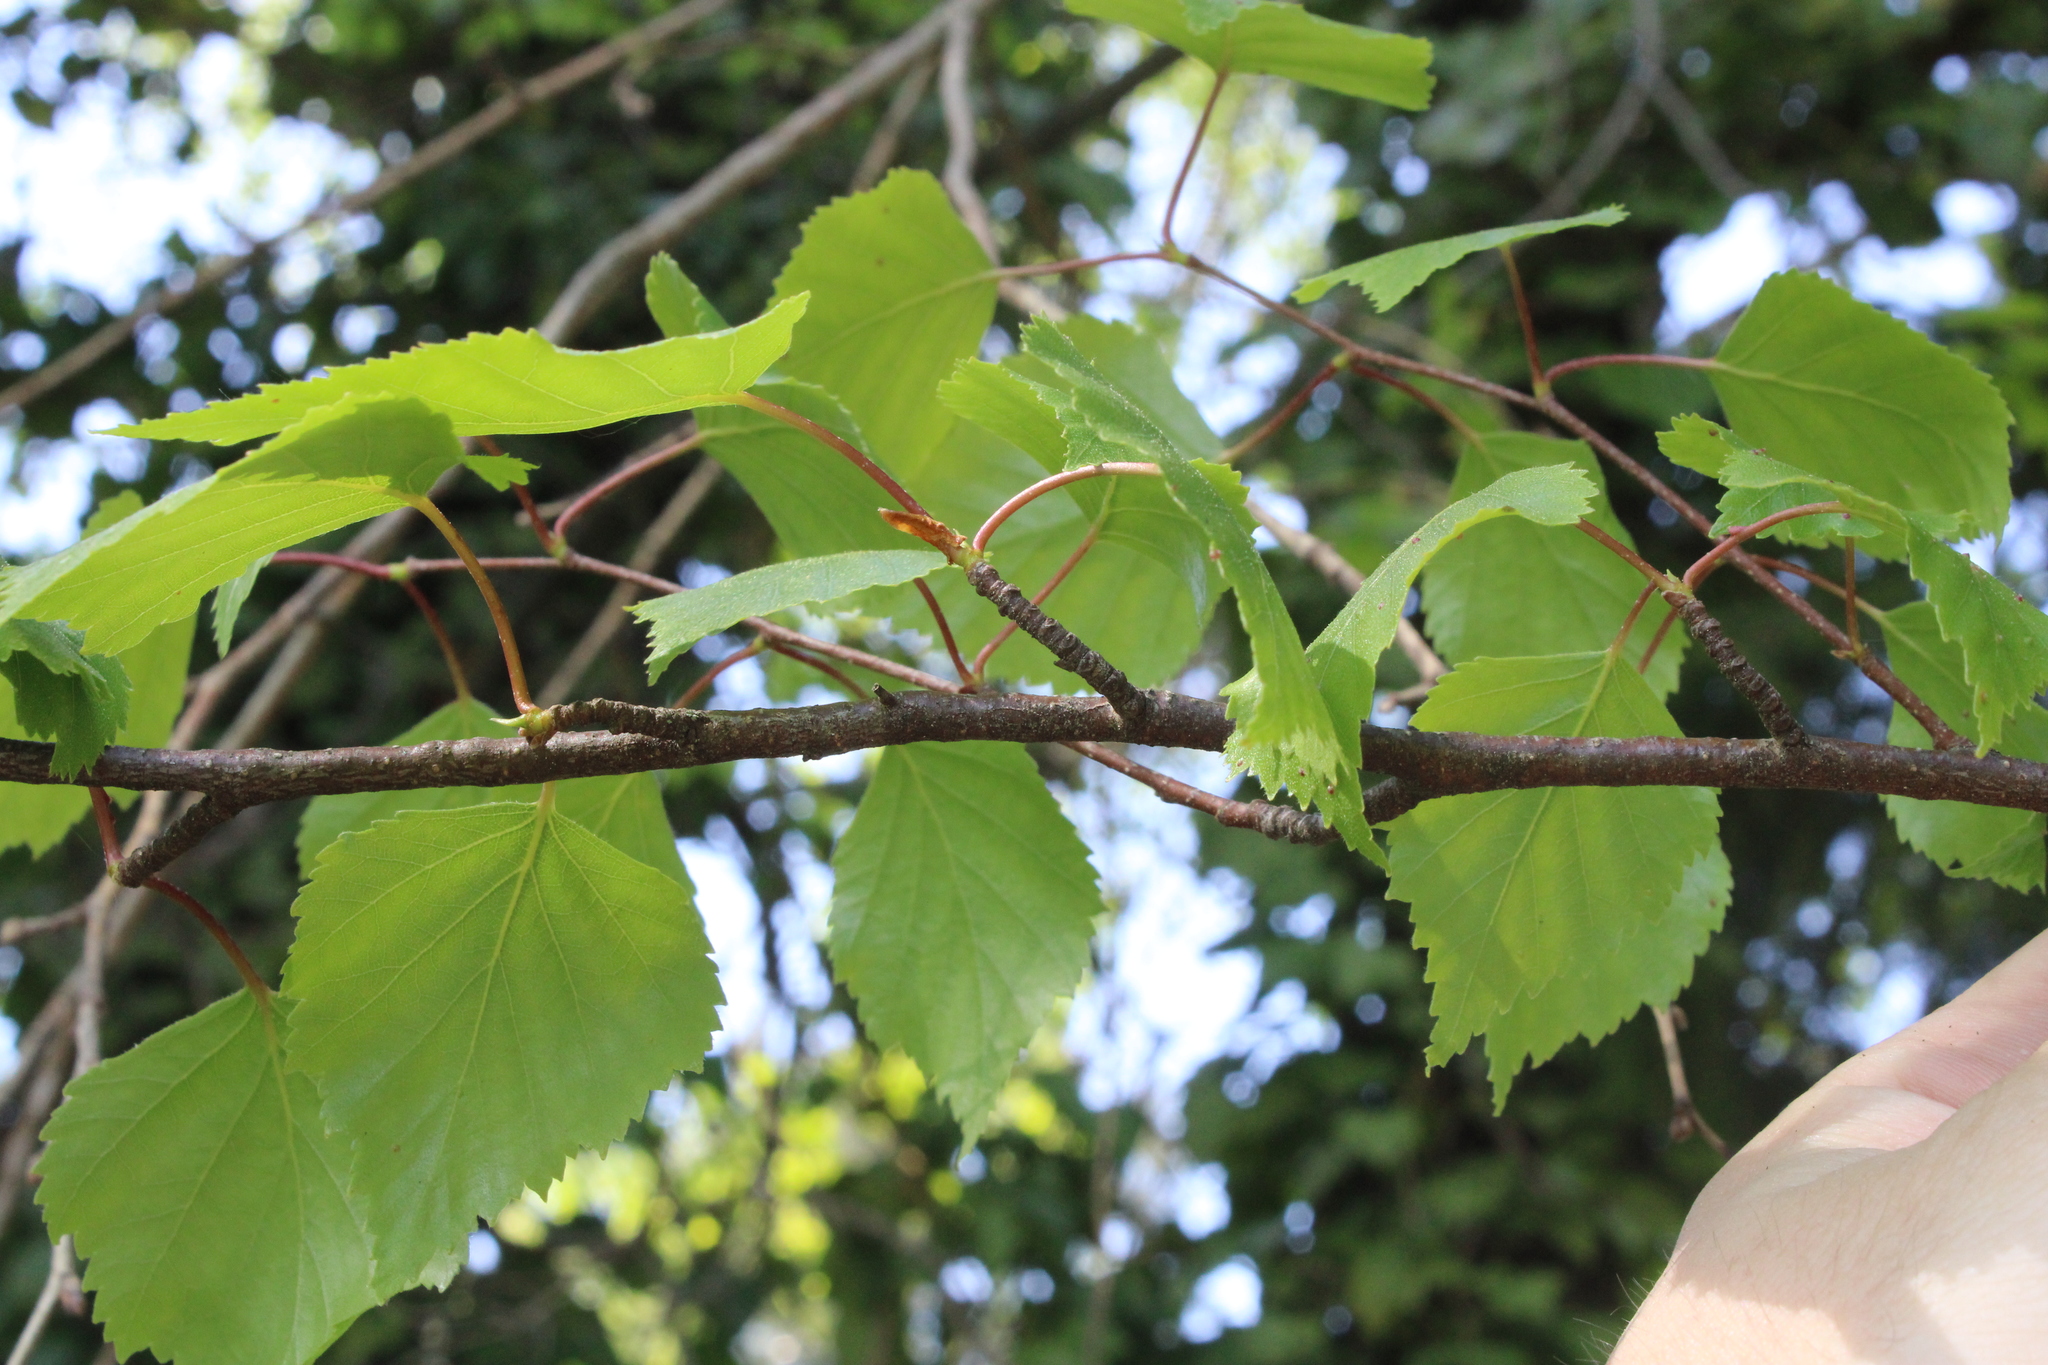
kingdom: Plantae
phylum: Tracheophyta
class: Magnoliopsida
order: Fagales
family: Betulaceae
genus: Betula
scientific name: Betula pendula
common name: Silver birch
